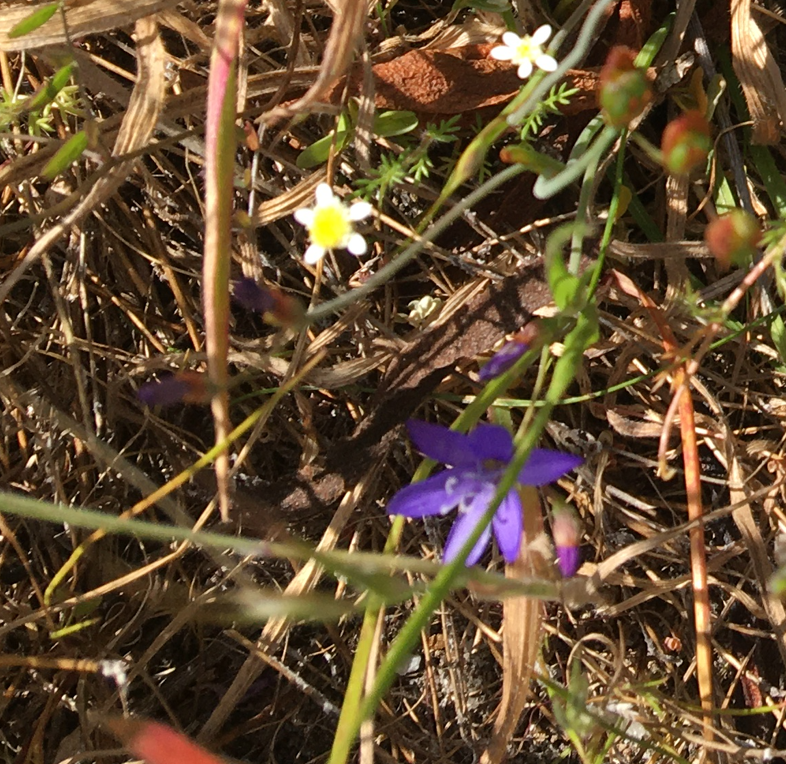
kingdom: Plantae
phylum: Tracheophyta
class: Liliopsida
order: Asparagales
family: Iridaceae
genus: Geissorhiza
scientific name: Geissorhiza aspera
